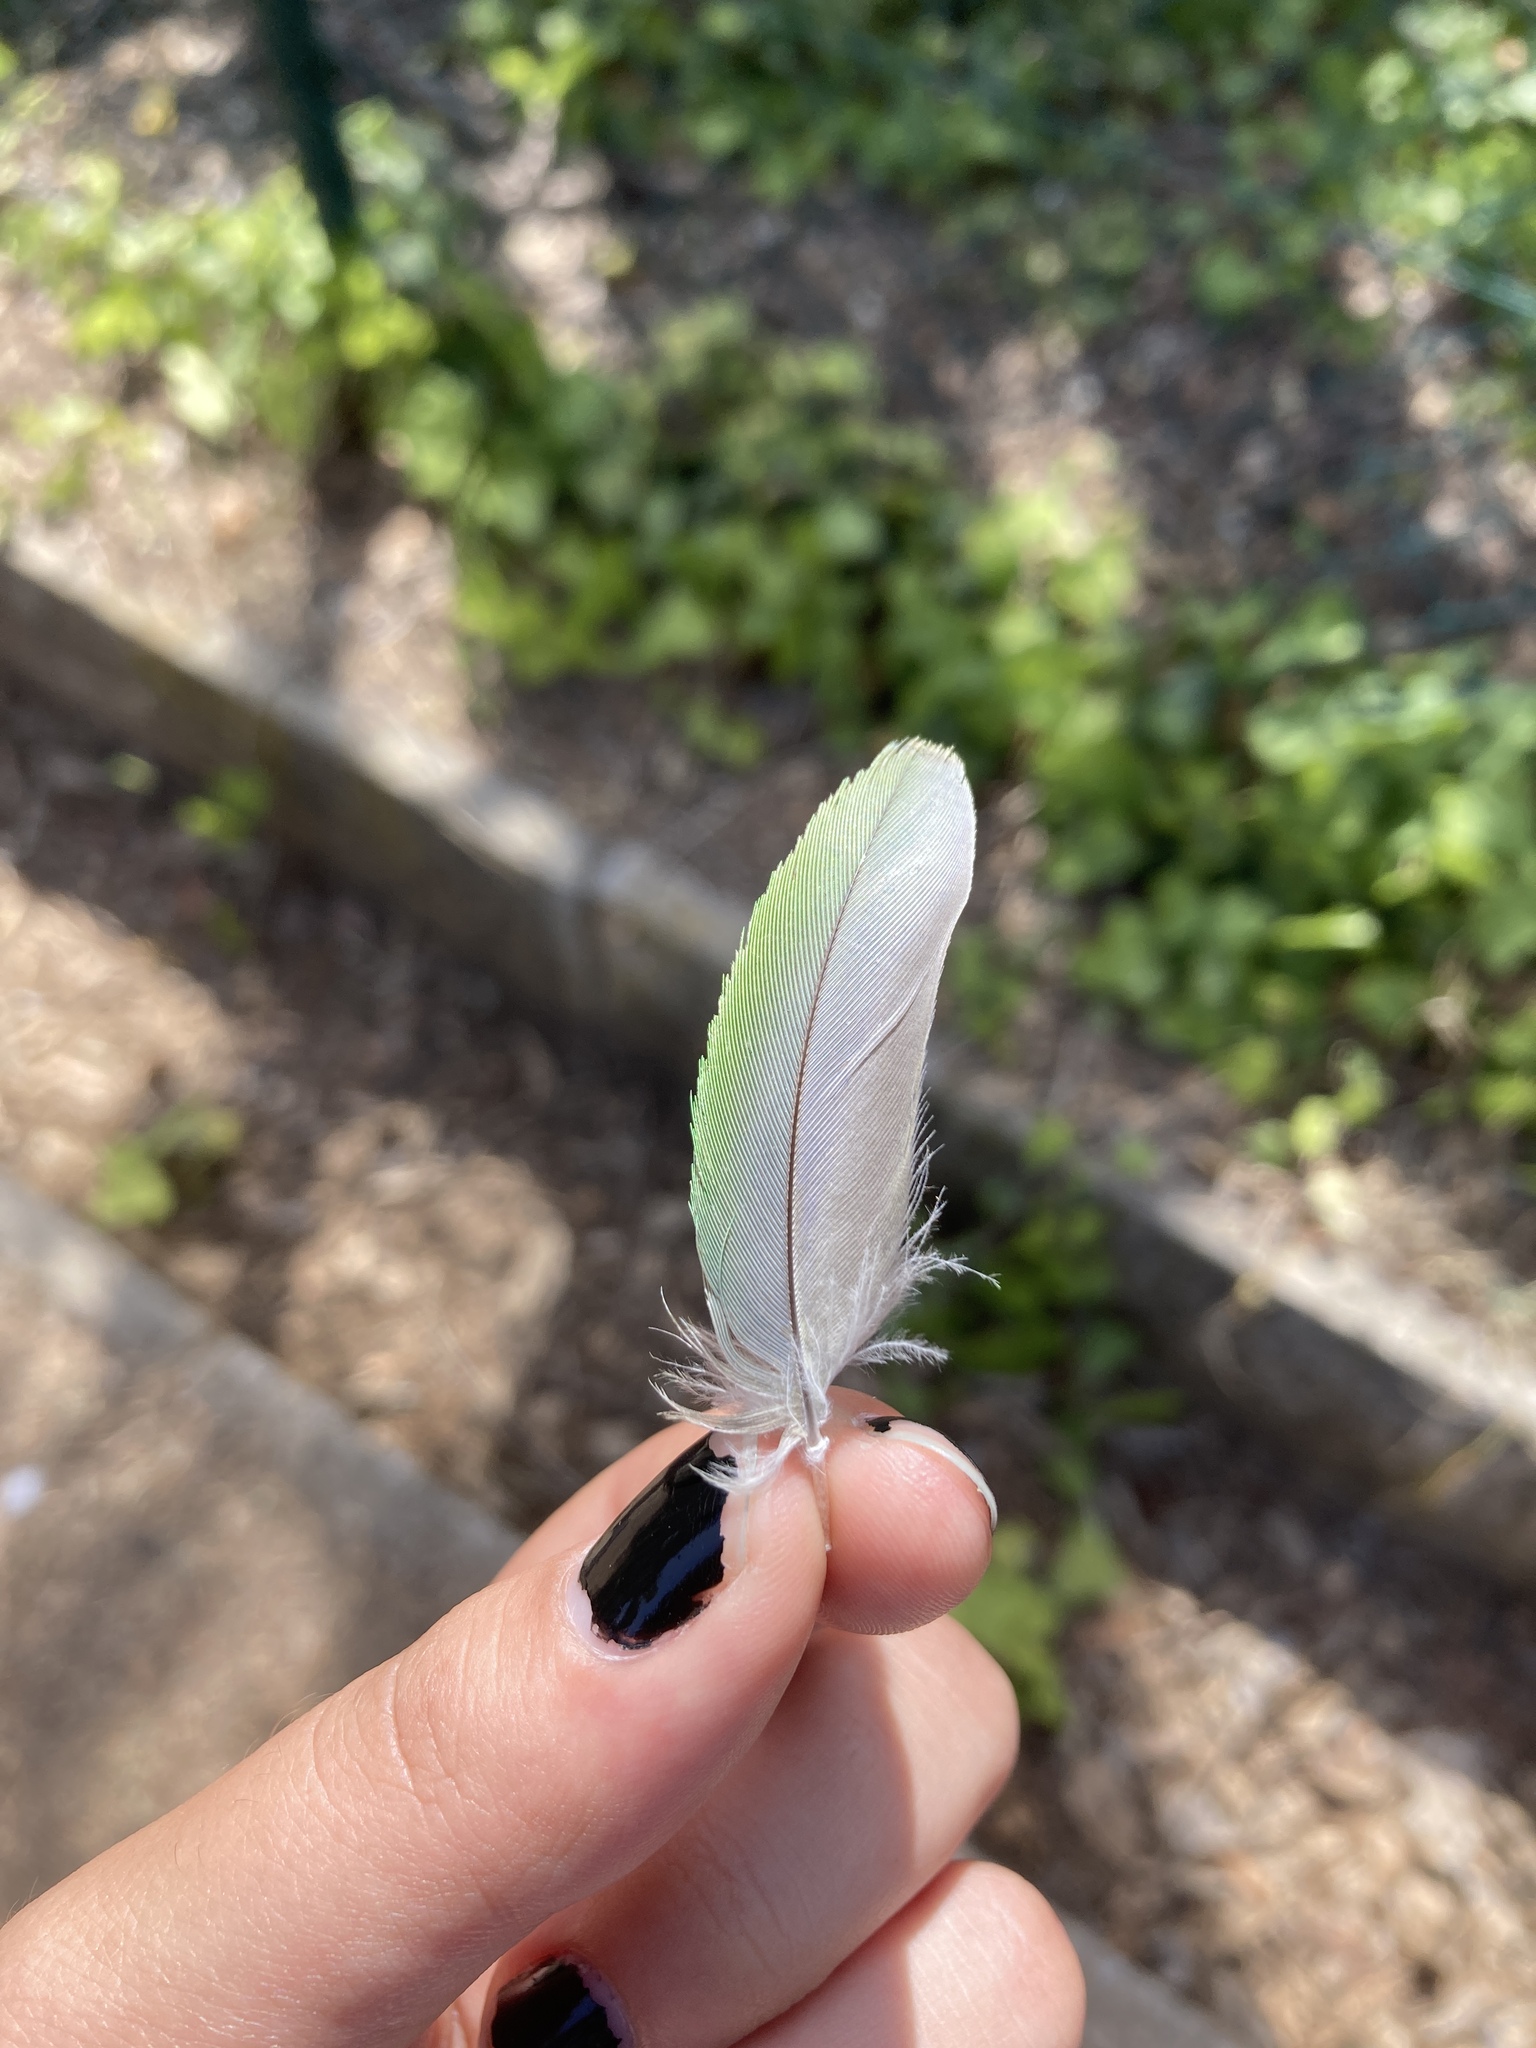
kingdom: Animalia
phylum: Chordata
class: Aves
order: Psittaciformes
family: Psittacidae
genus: Myiopsitta
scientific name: Myiopsitta monachus
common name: Monk parakeet
